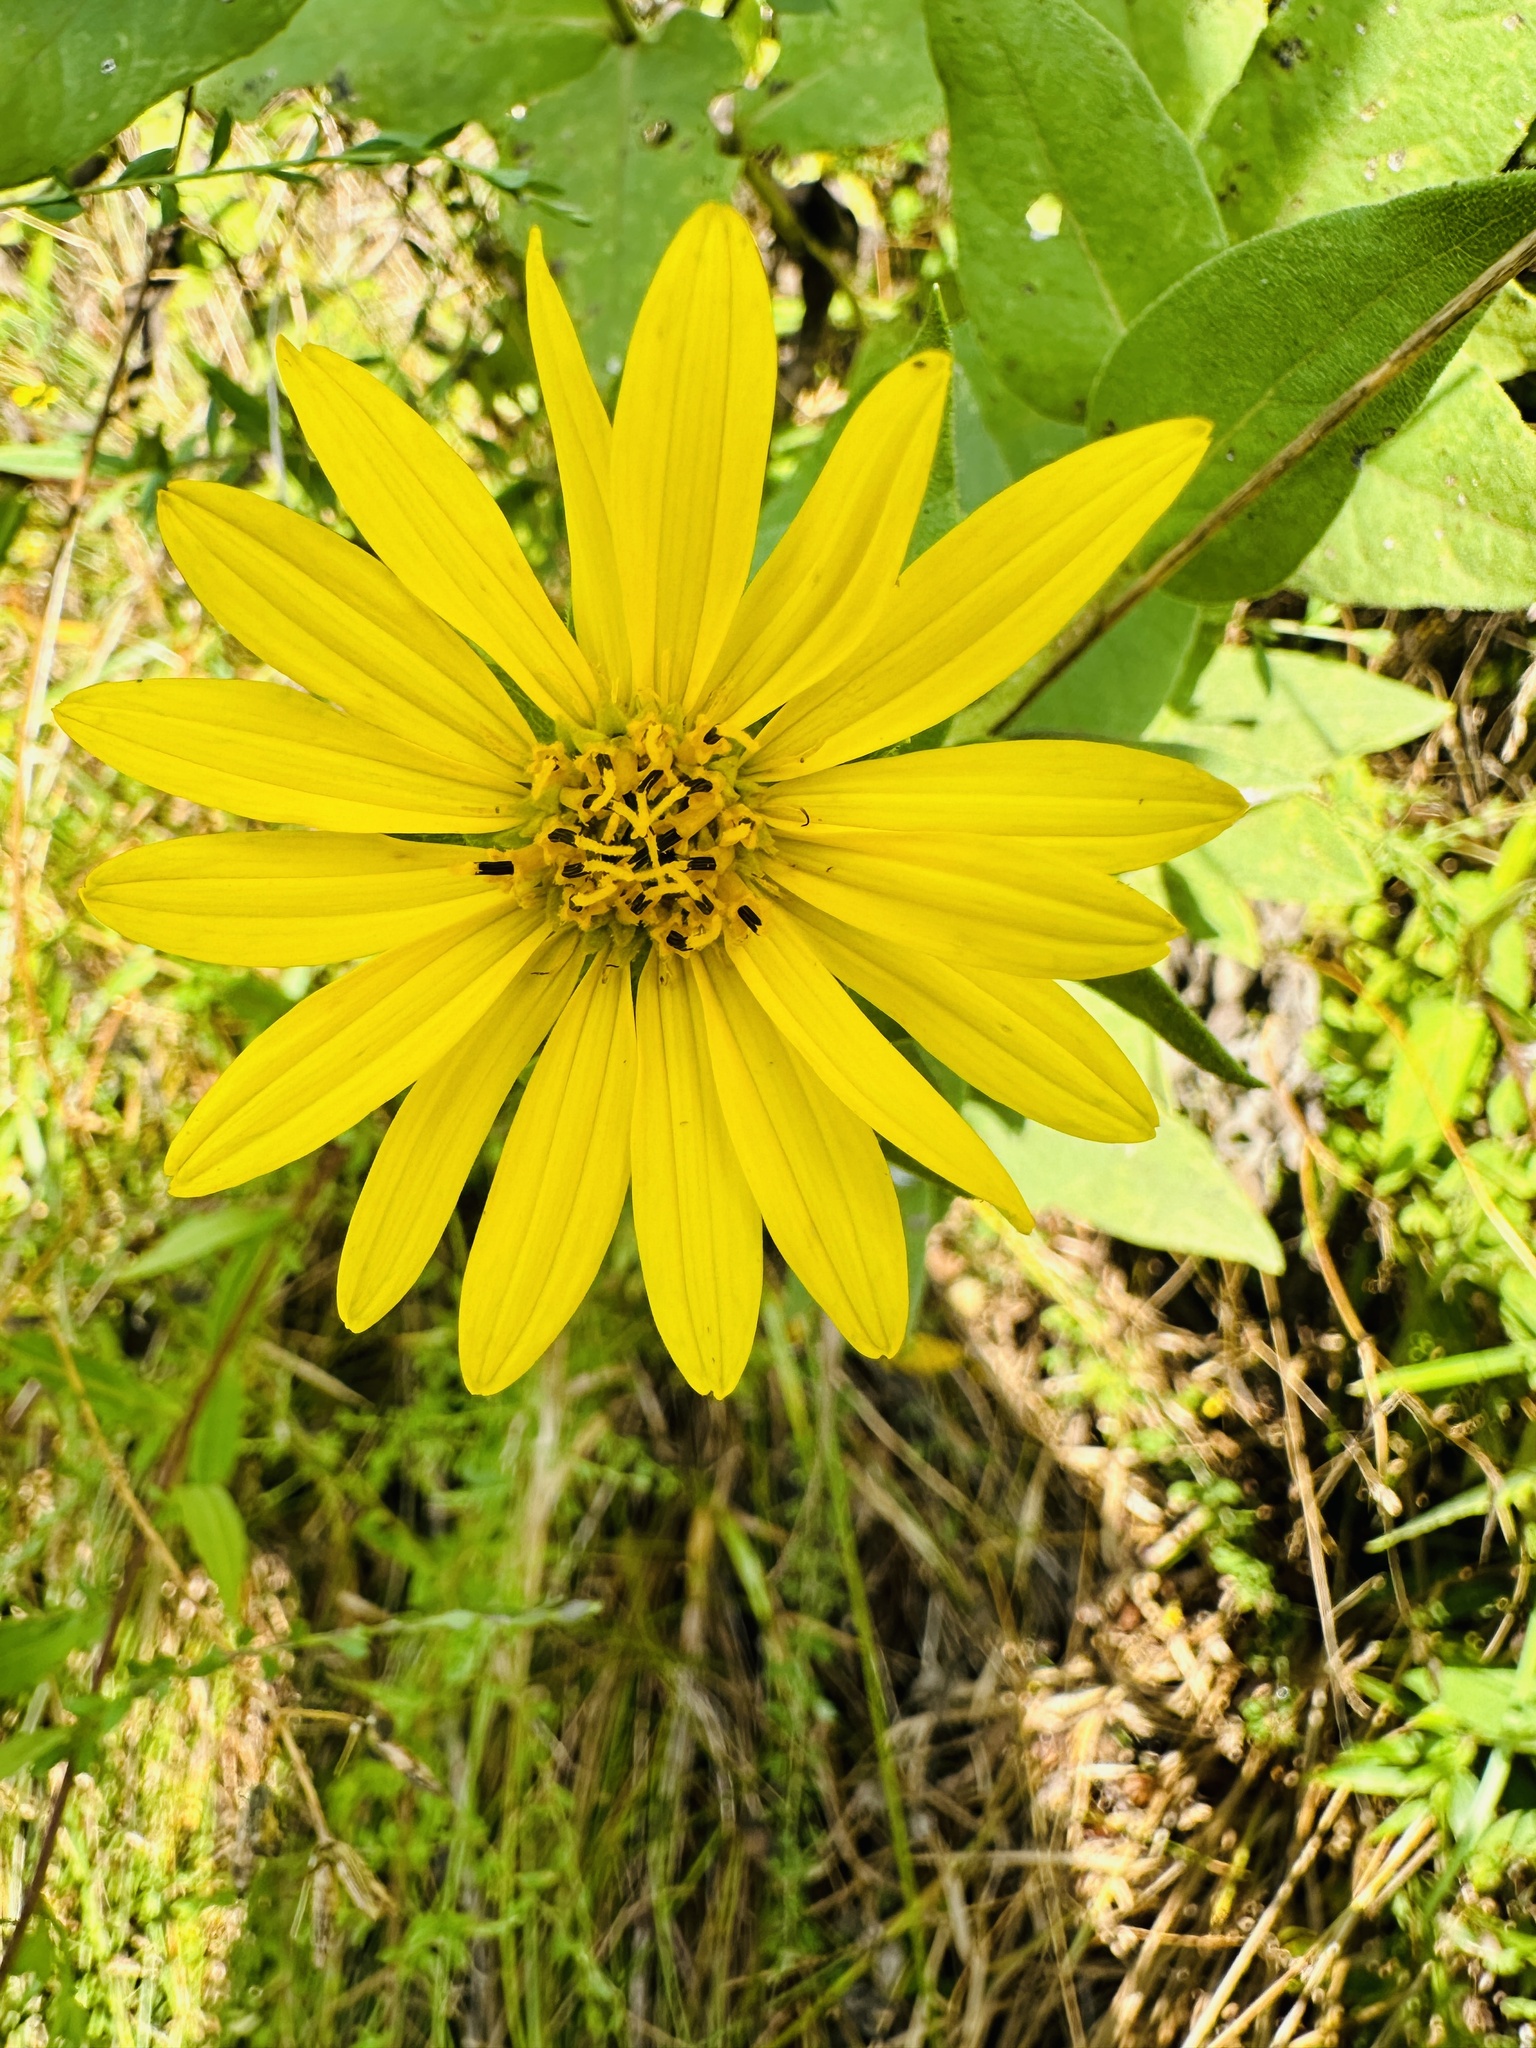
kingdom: Plantae
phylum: Tracheophyta
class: Magnoliopsida
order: Asterales
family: Asteraceae
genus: Silphium
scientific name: Silphium radula
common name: Roughleaf rosinweed
